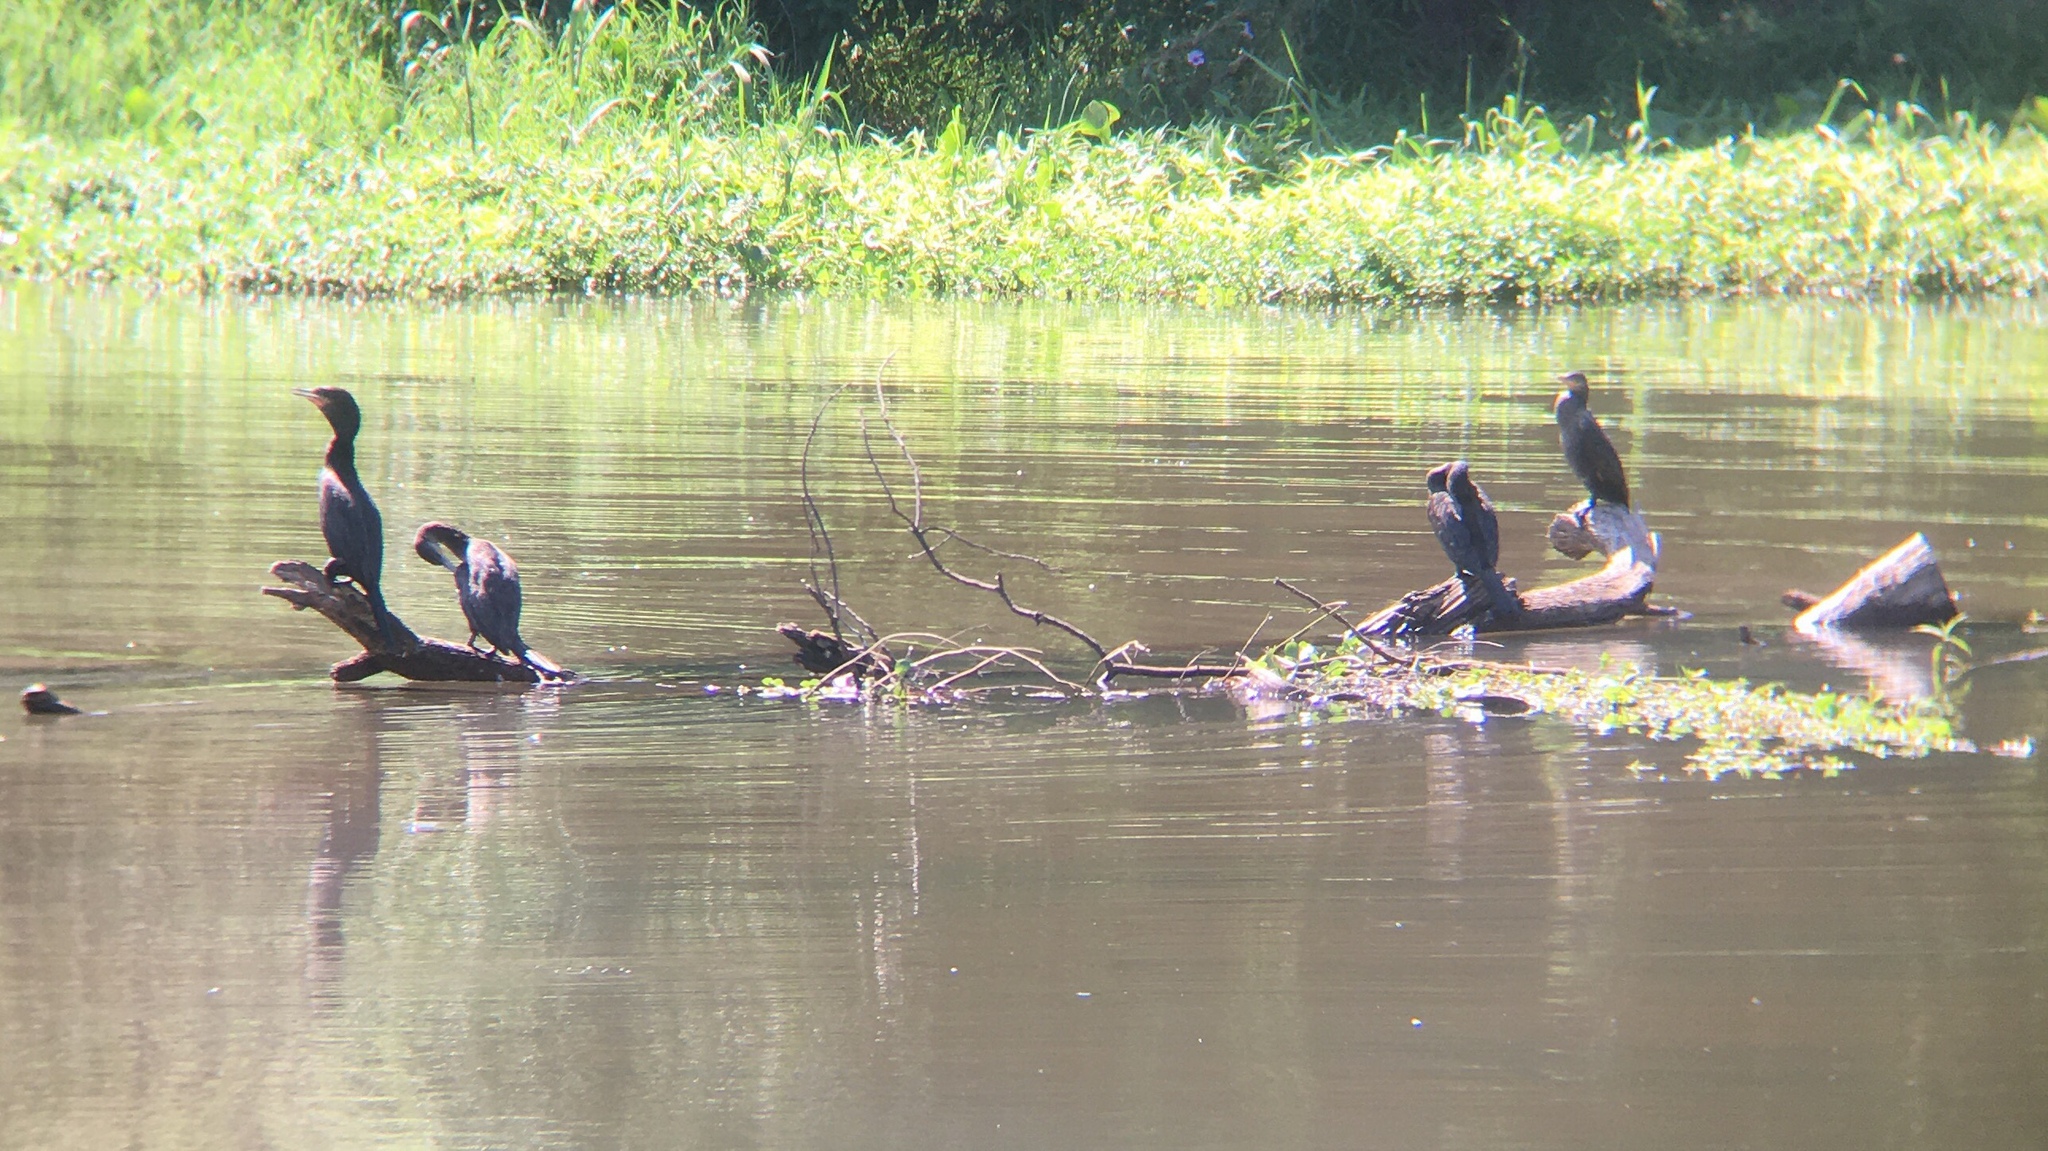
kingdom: Animalia
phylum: Chordata
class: Aves
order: Suliformes
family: Phalacrocoracidae
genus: Phalacrocorax
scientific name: Phalacrocorax brasilianus
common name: Neotropic cormorant
